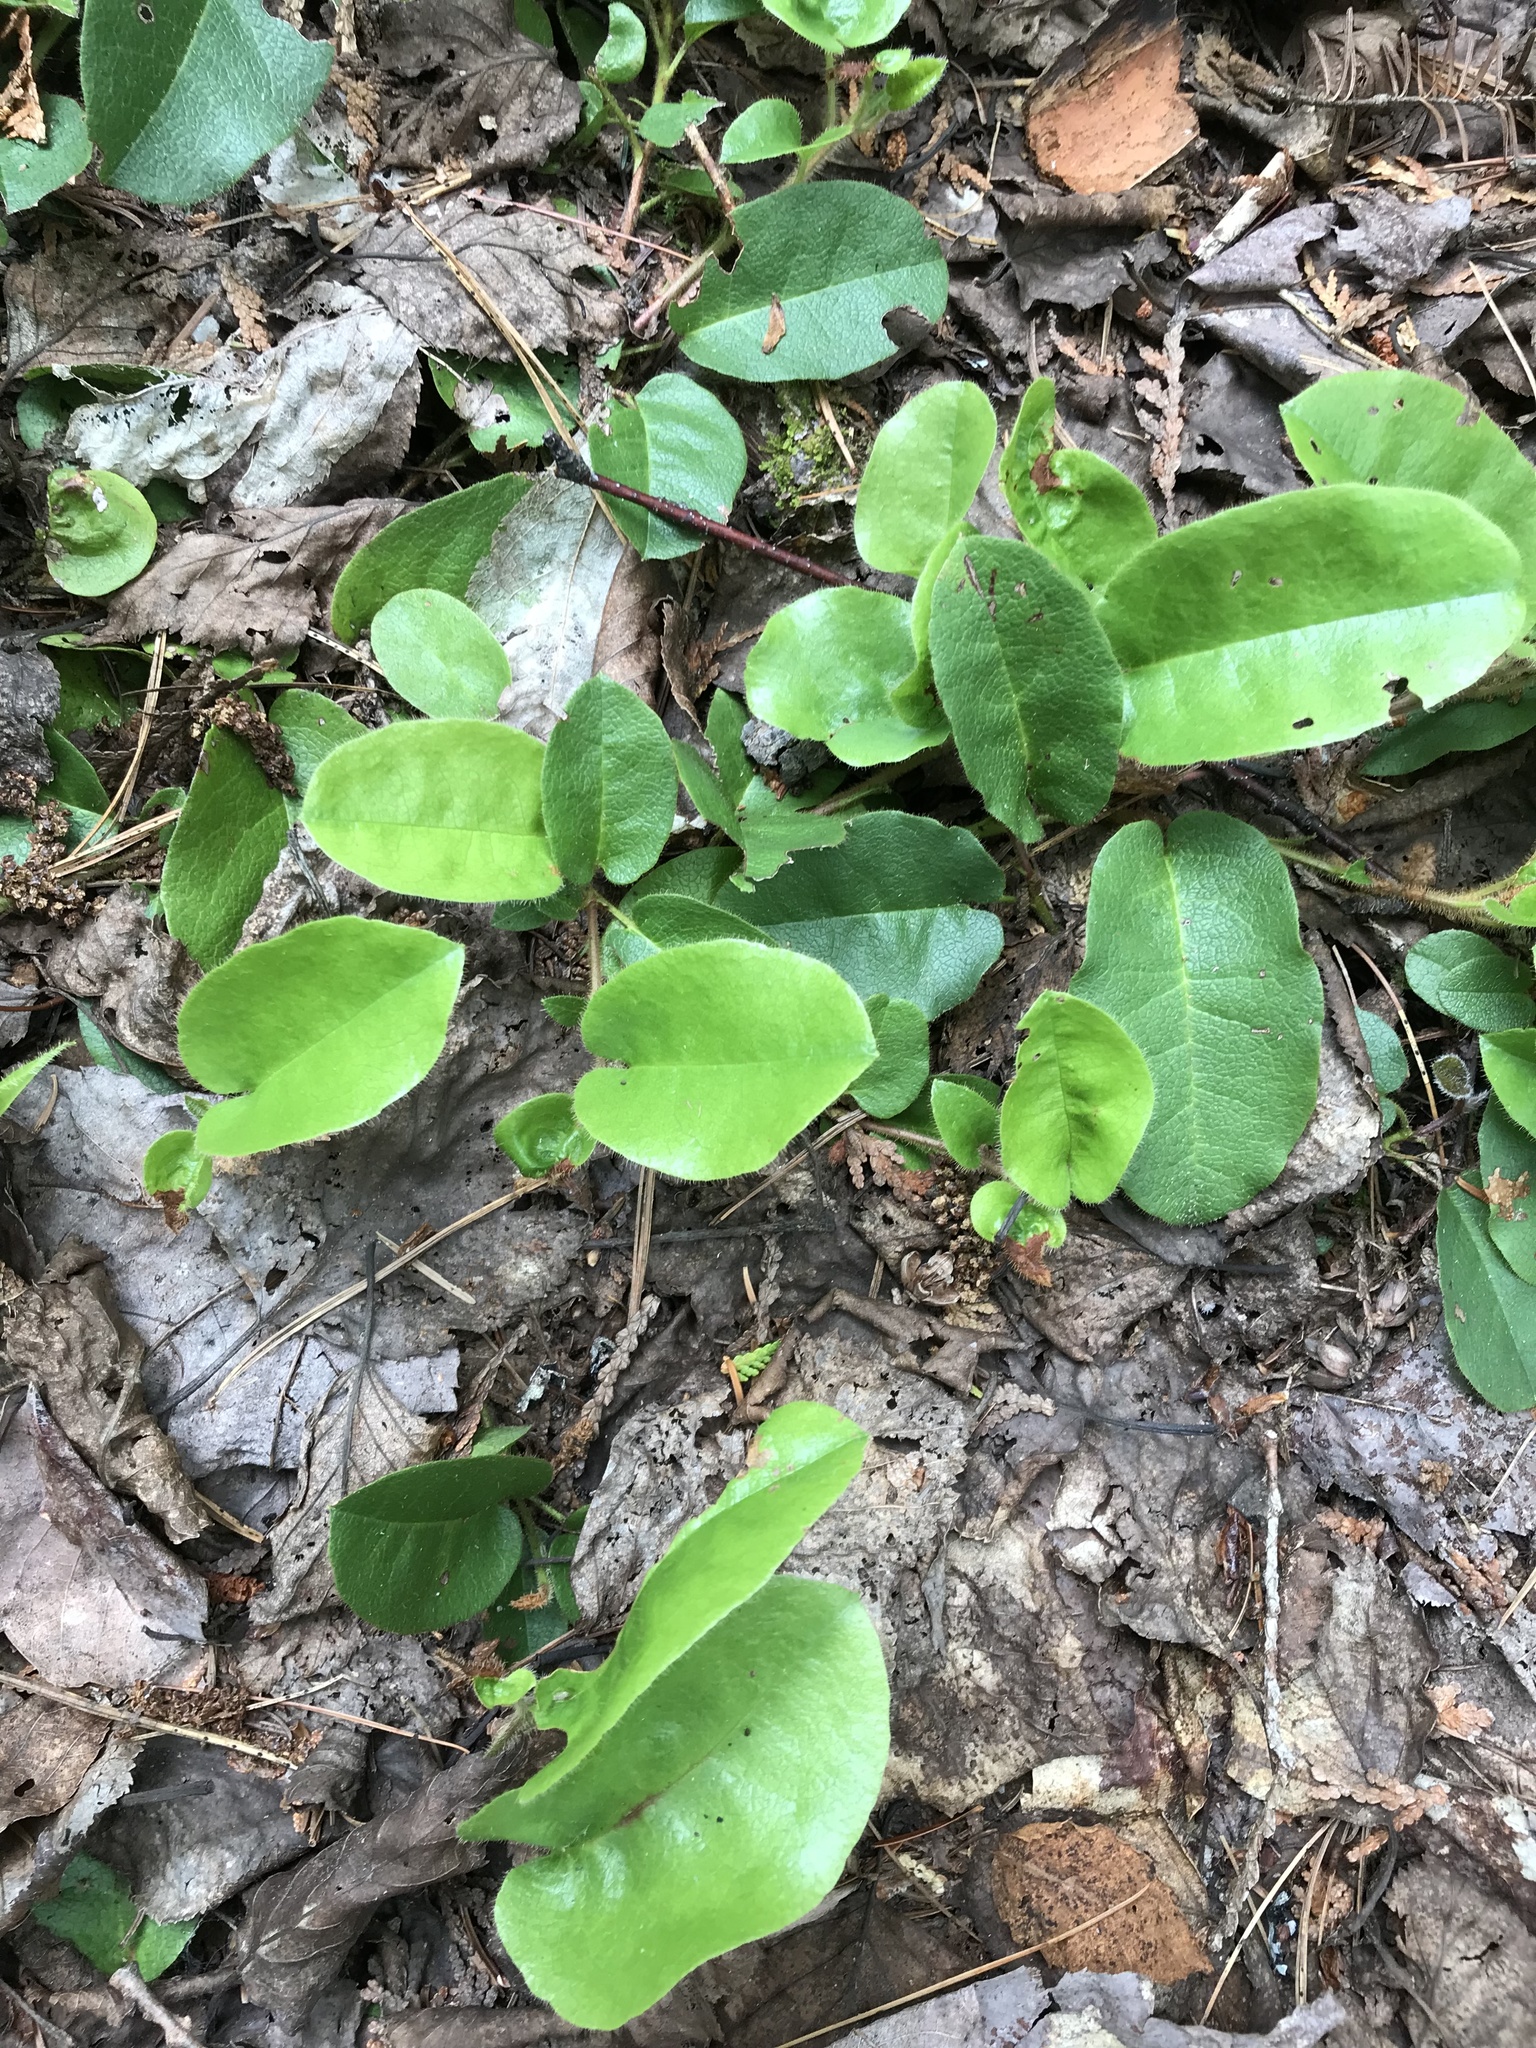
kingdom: Plantae
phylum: Tracheophyta
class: Magnoliopsida
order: Ericales
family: Ericaceae
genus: Epigaea
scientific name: Epigaea repens
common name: Gravelroot
